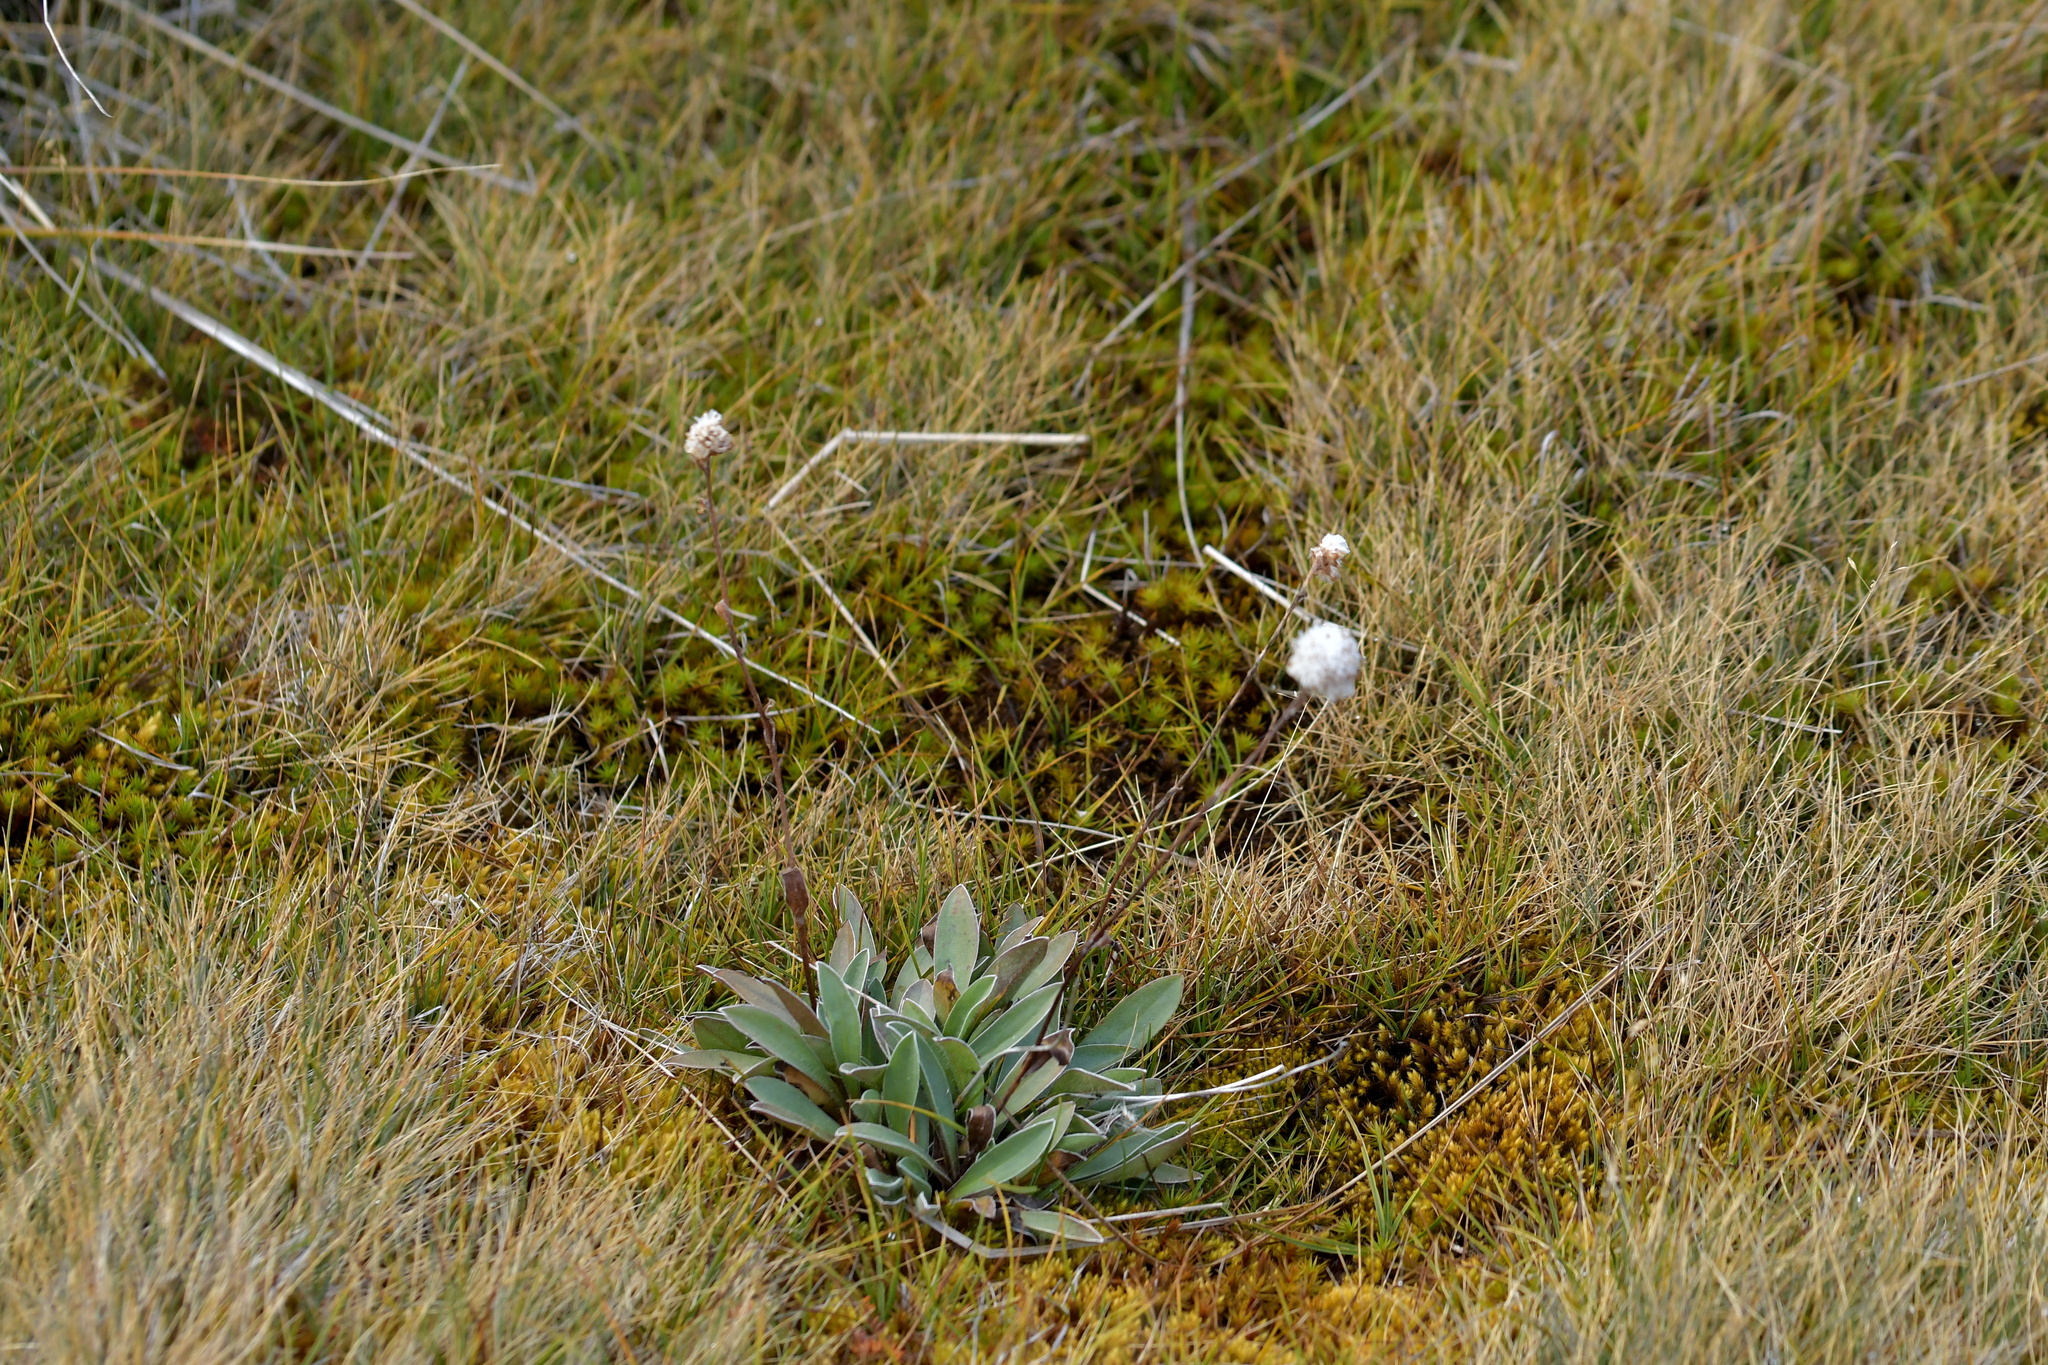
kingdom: Plantae
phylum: Tracheophyta
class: Magnoliopsida
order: Asterales
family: Asteraceae
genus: Craspedia
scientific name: Craspedia uniflora
